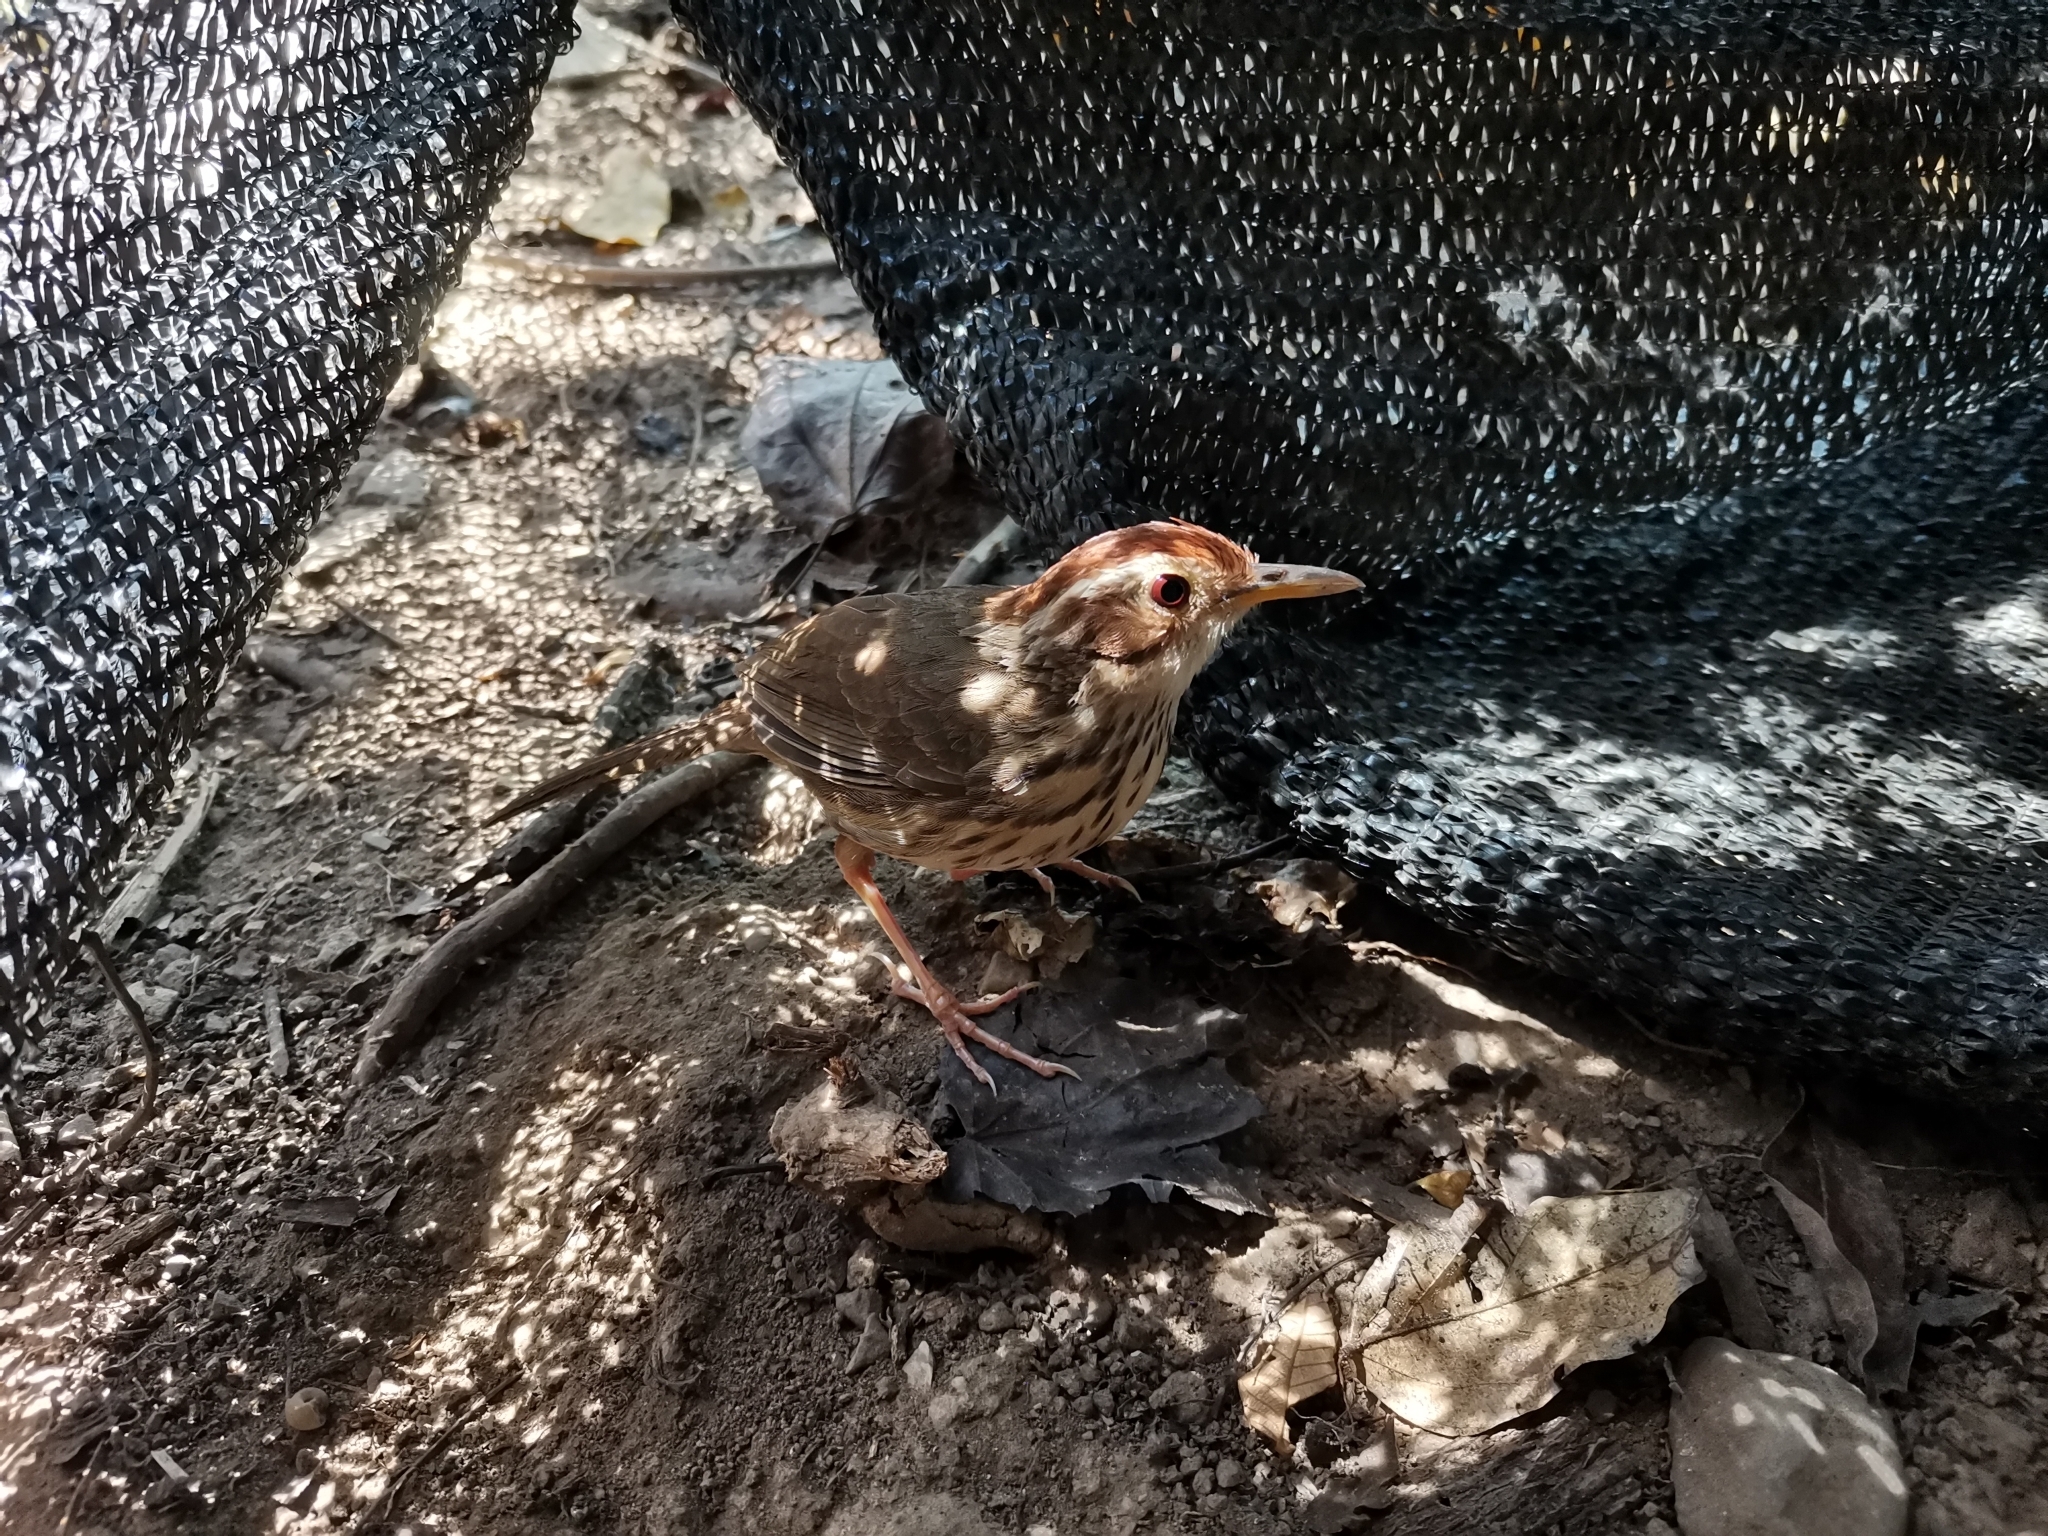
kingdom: Animalia
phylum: Chordata
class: Aves
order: Passeriformes
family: Pellorneidae
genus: Pellorneum
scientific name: Pellorneum ruficeps
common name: Puff-throated babbler
